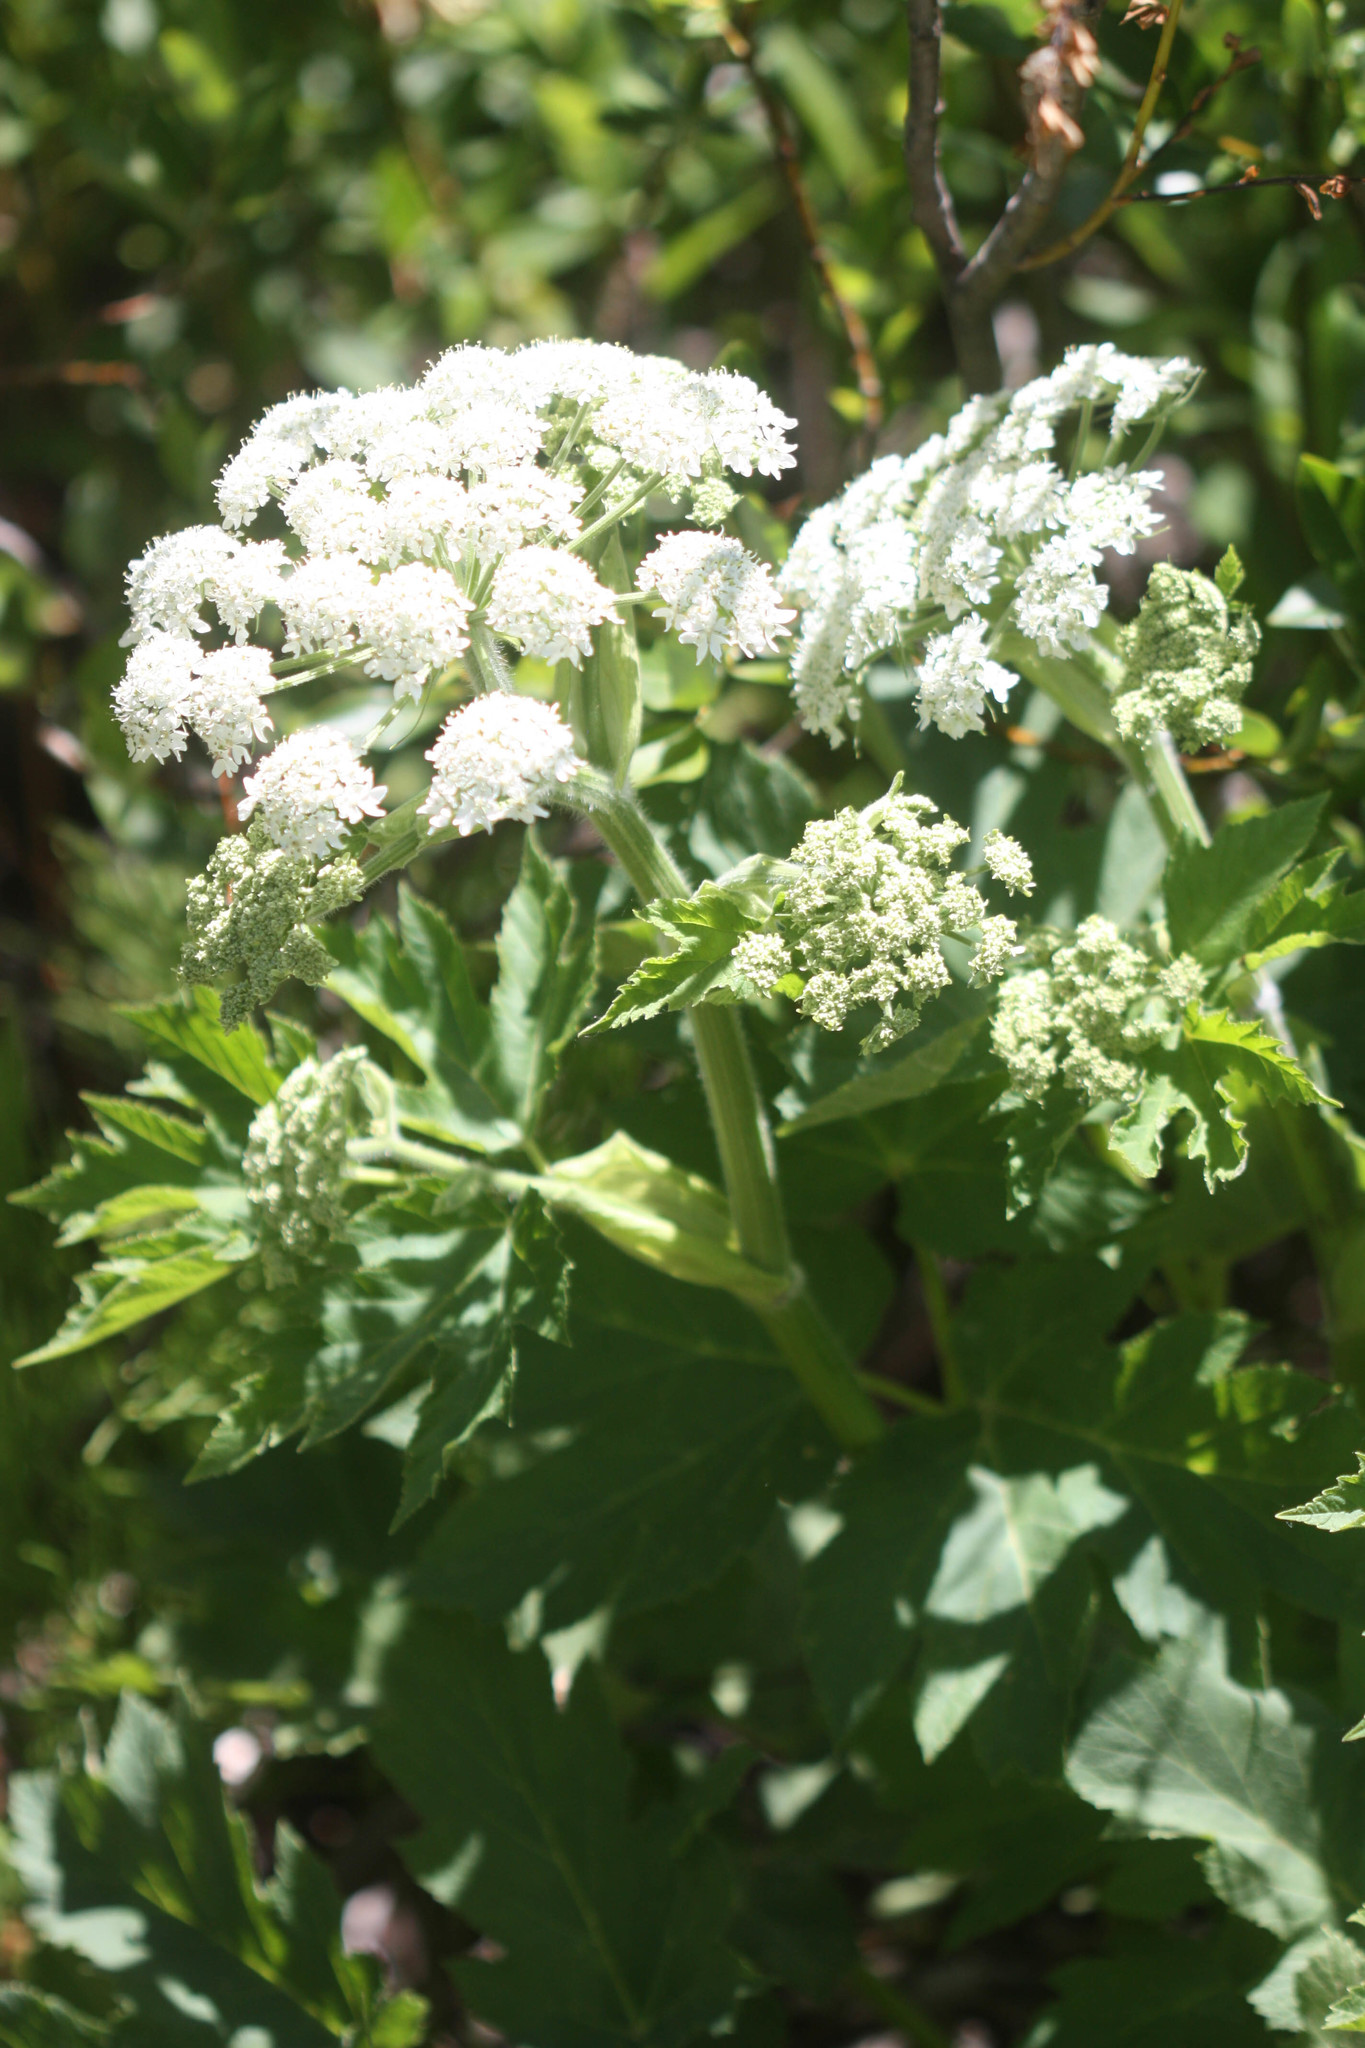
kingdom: Plantae
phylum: Tracheophyta
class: Magnoliopsida
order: Apiales
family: Apiaceae
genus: Heracleum
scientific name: Heracleum maximum
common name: American cow parsnip
